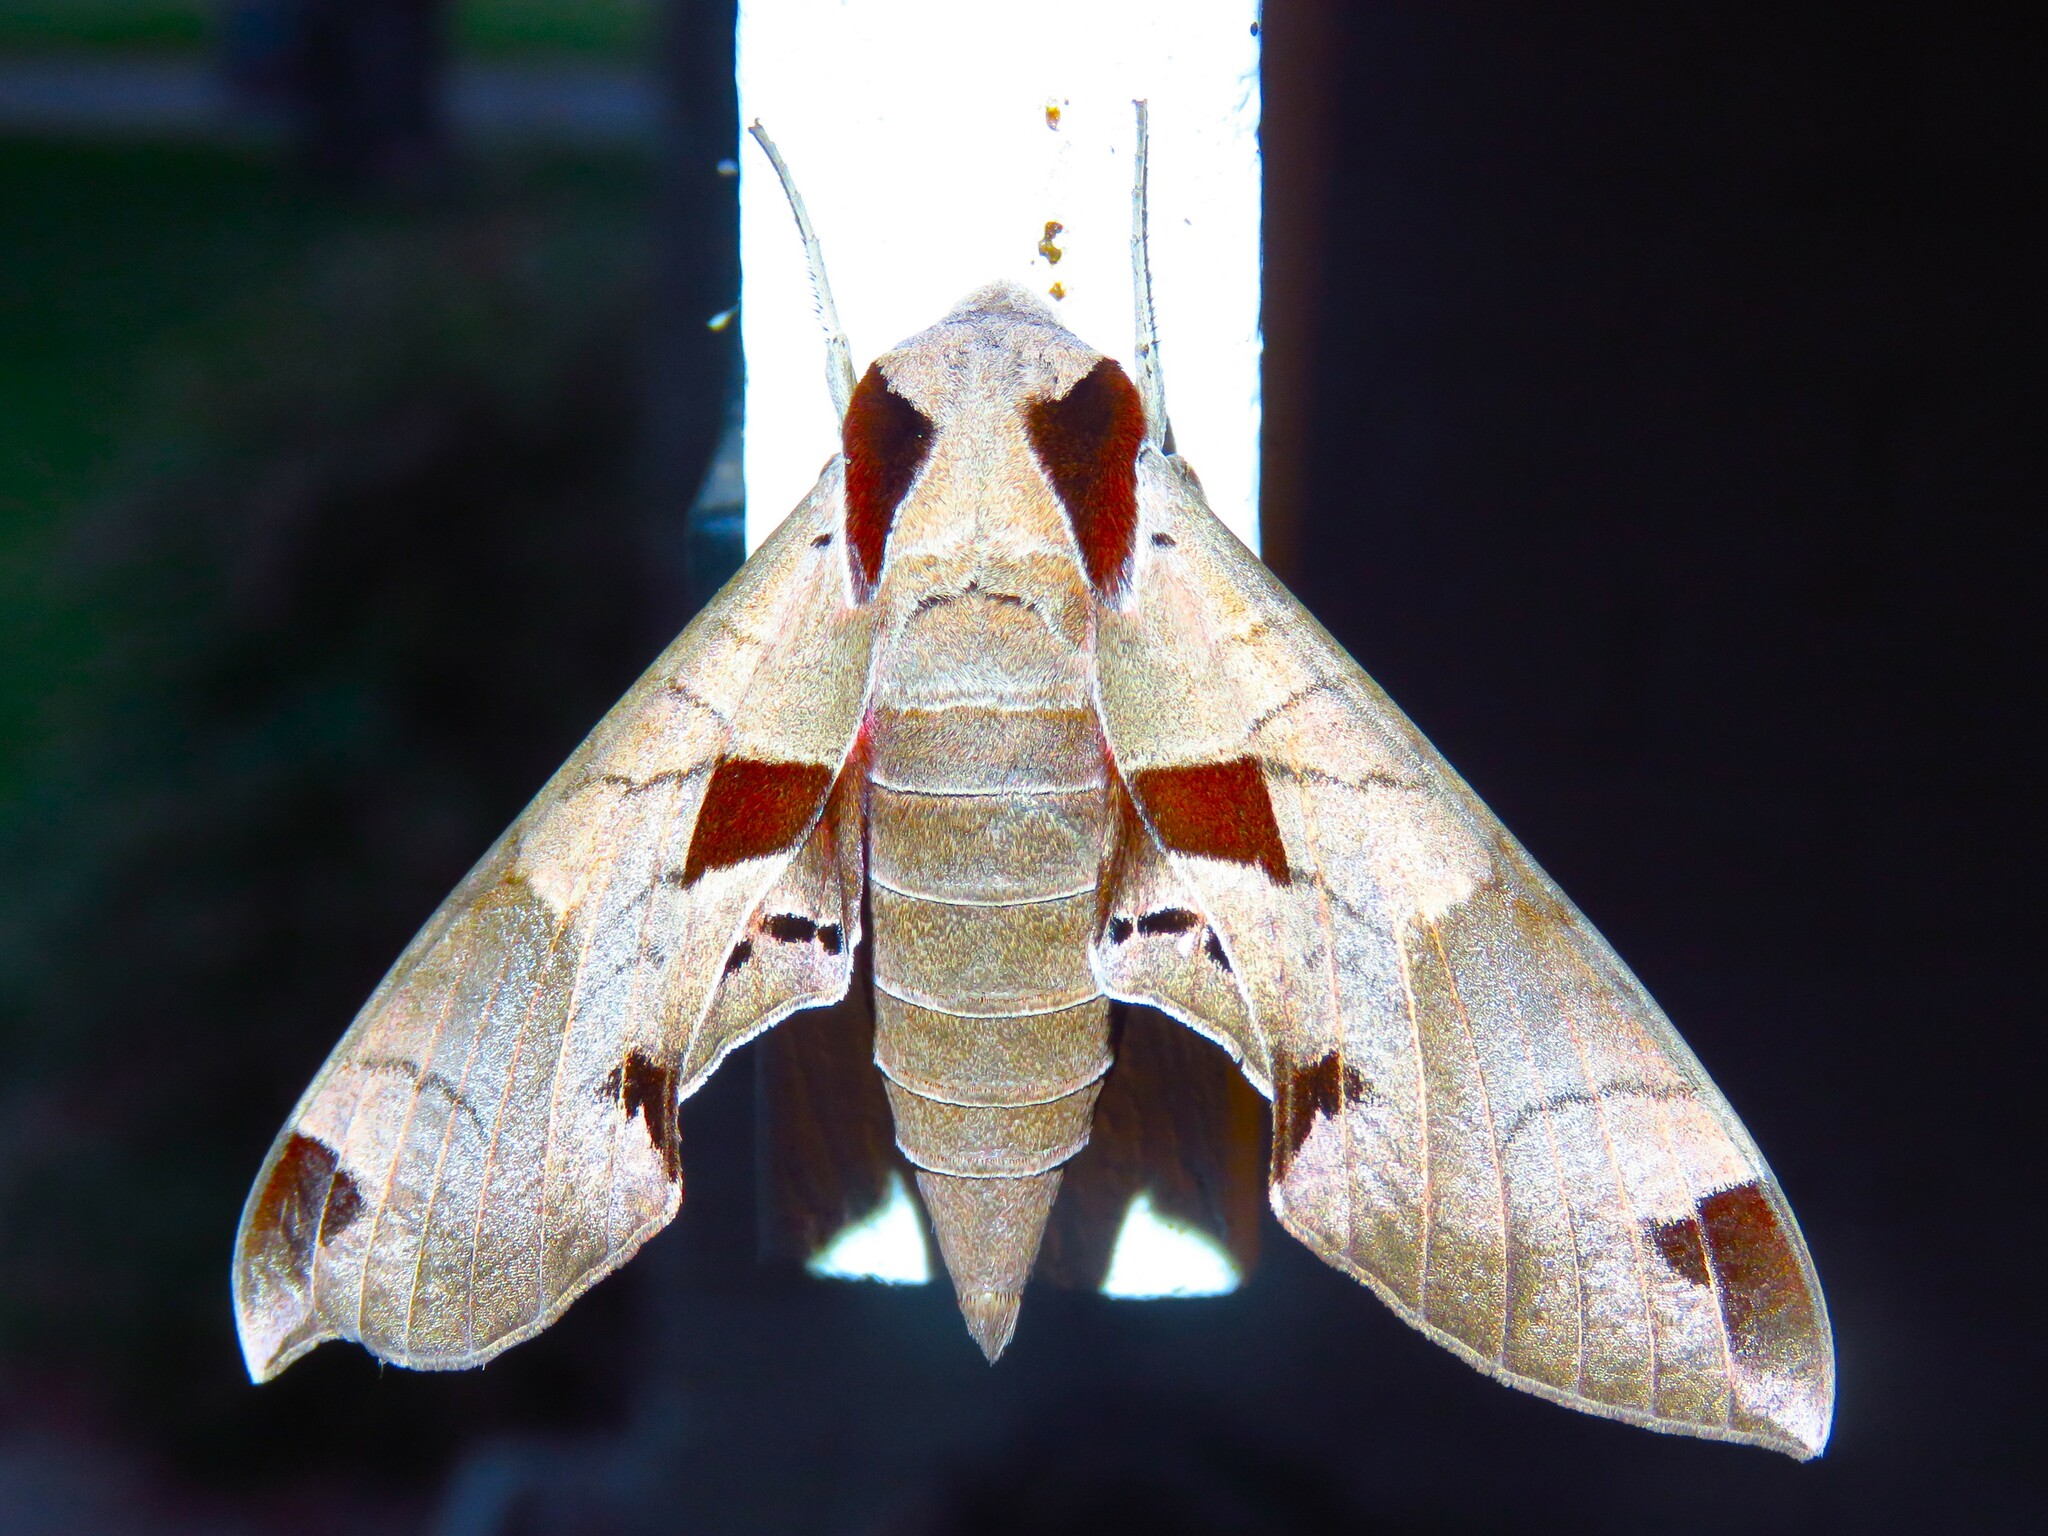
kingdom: Animalia
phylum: Arthropoda
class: Insecta
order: Lepidoptera
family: Sphingidae
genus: Eumorpha
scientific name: Eumorpha achemon
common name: Achemon sphinx
